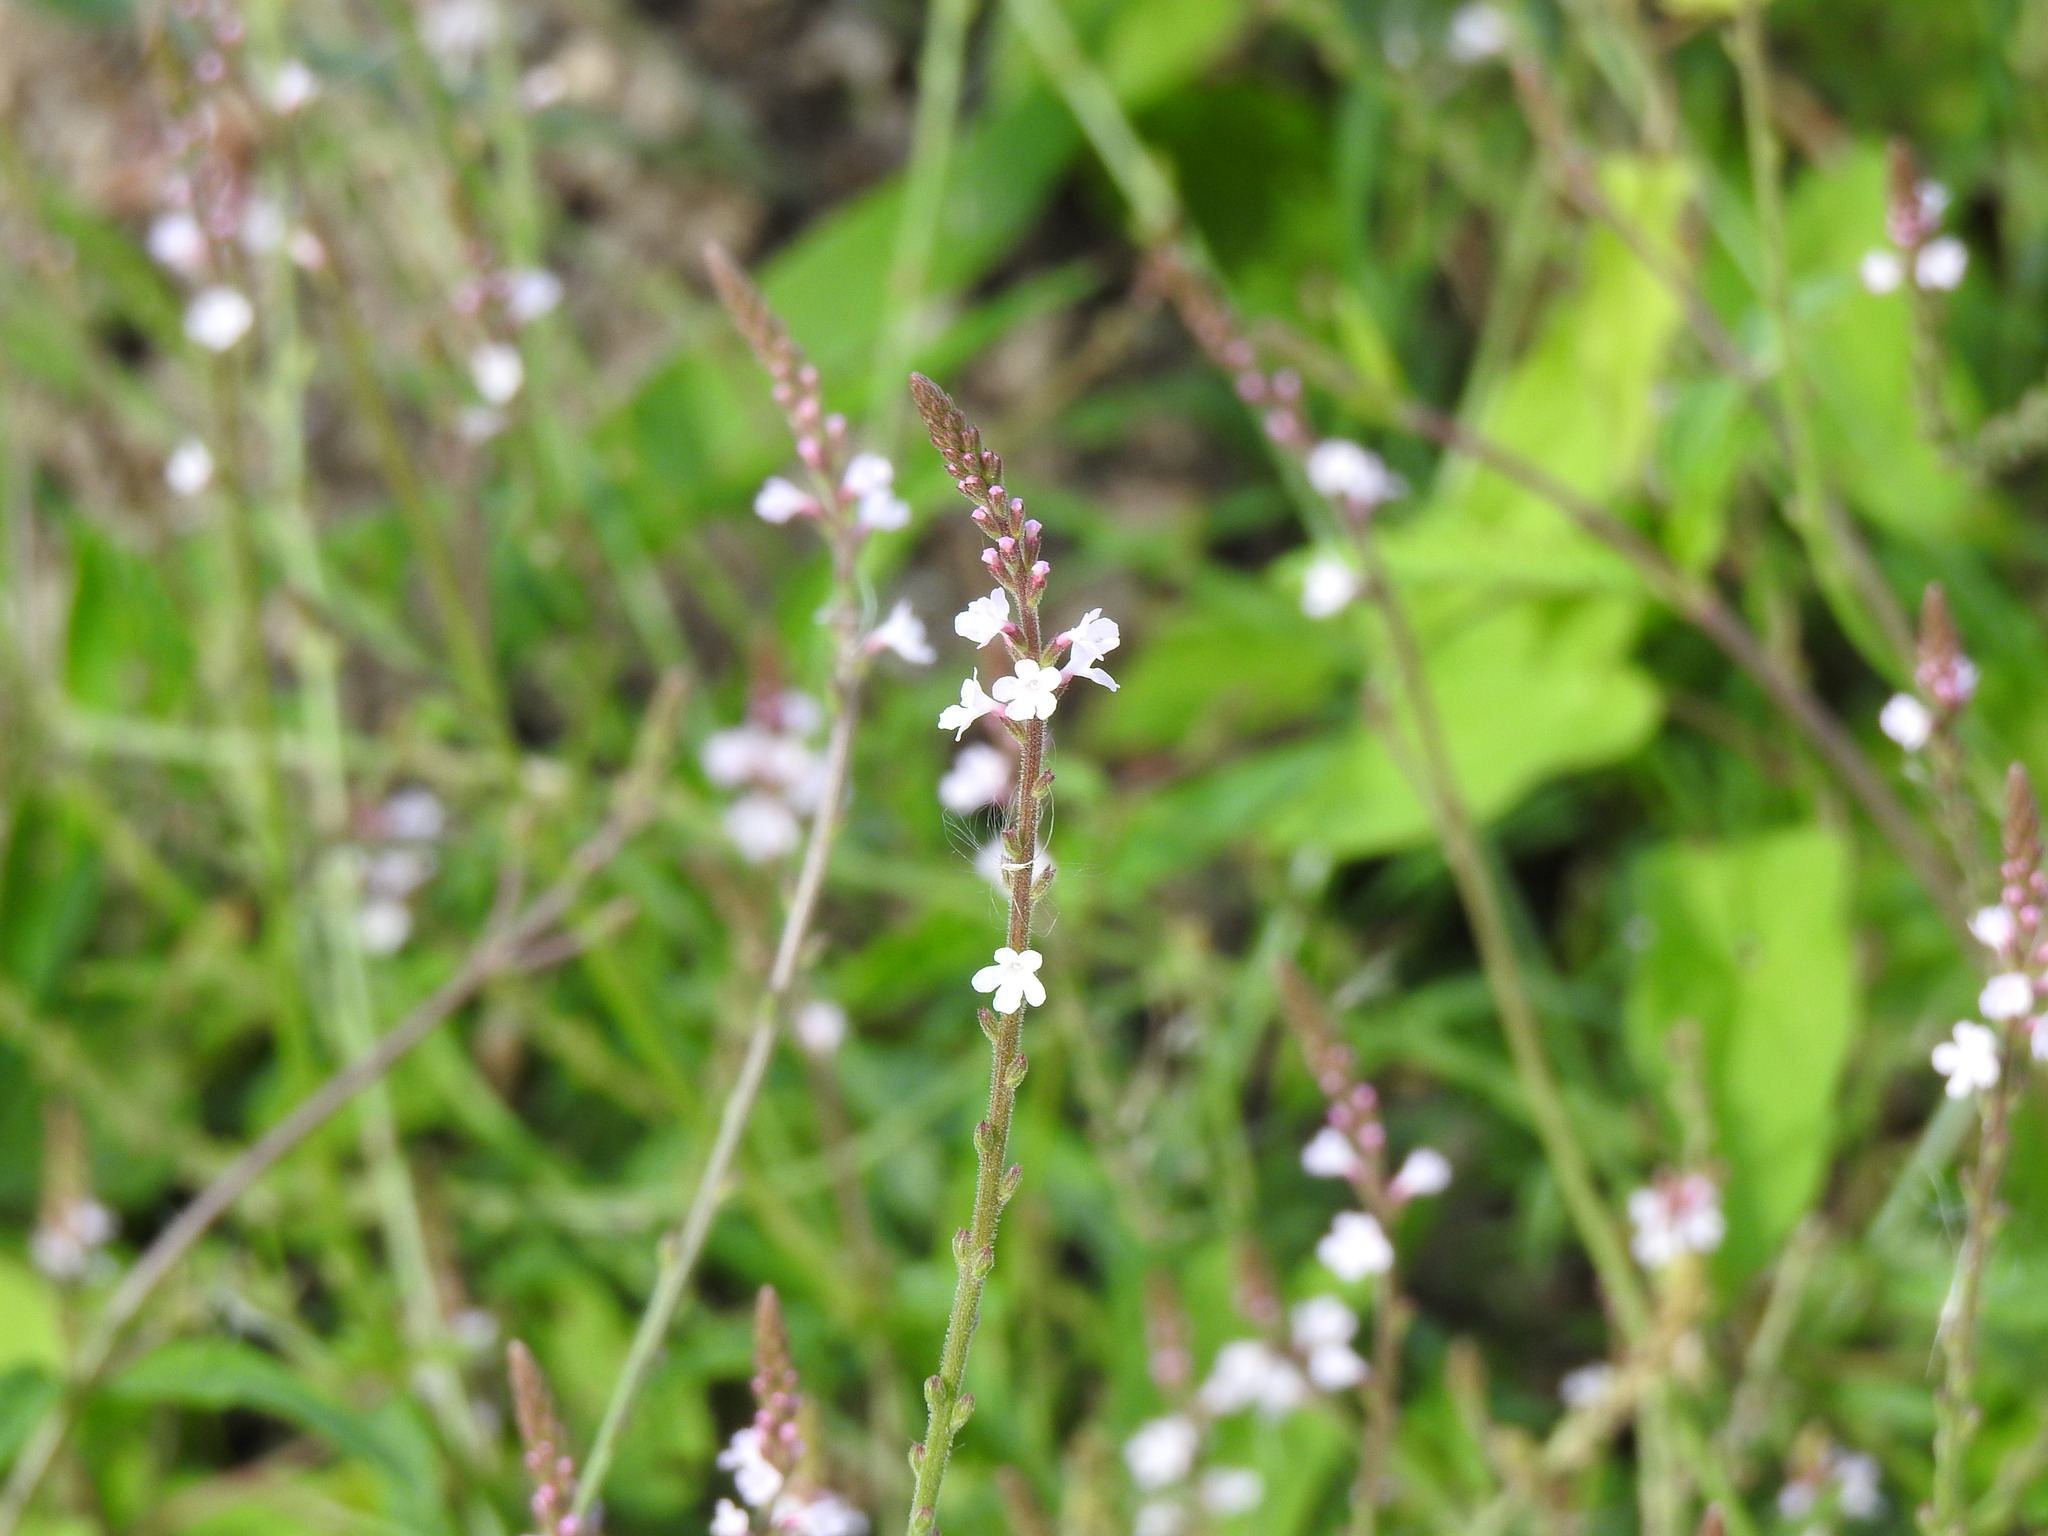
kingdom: Plantae
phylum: Tracheophyta
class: Magnoliopsida
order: Lamiales
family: Verbenaceae
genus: Verbena
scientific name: Verbena officinalis
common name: Vervain
